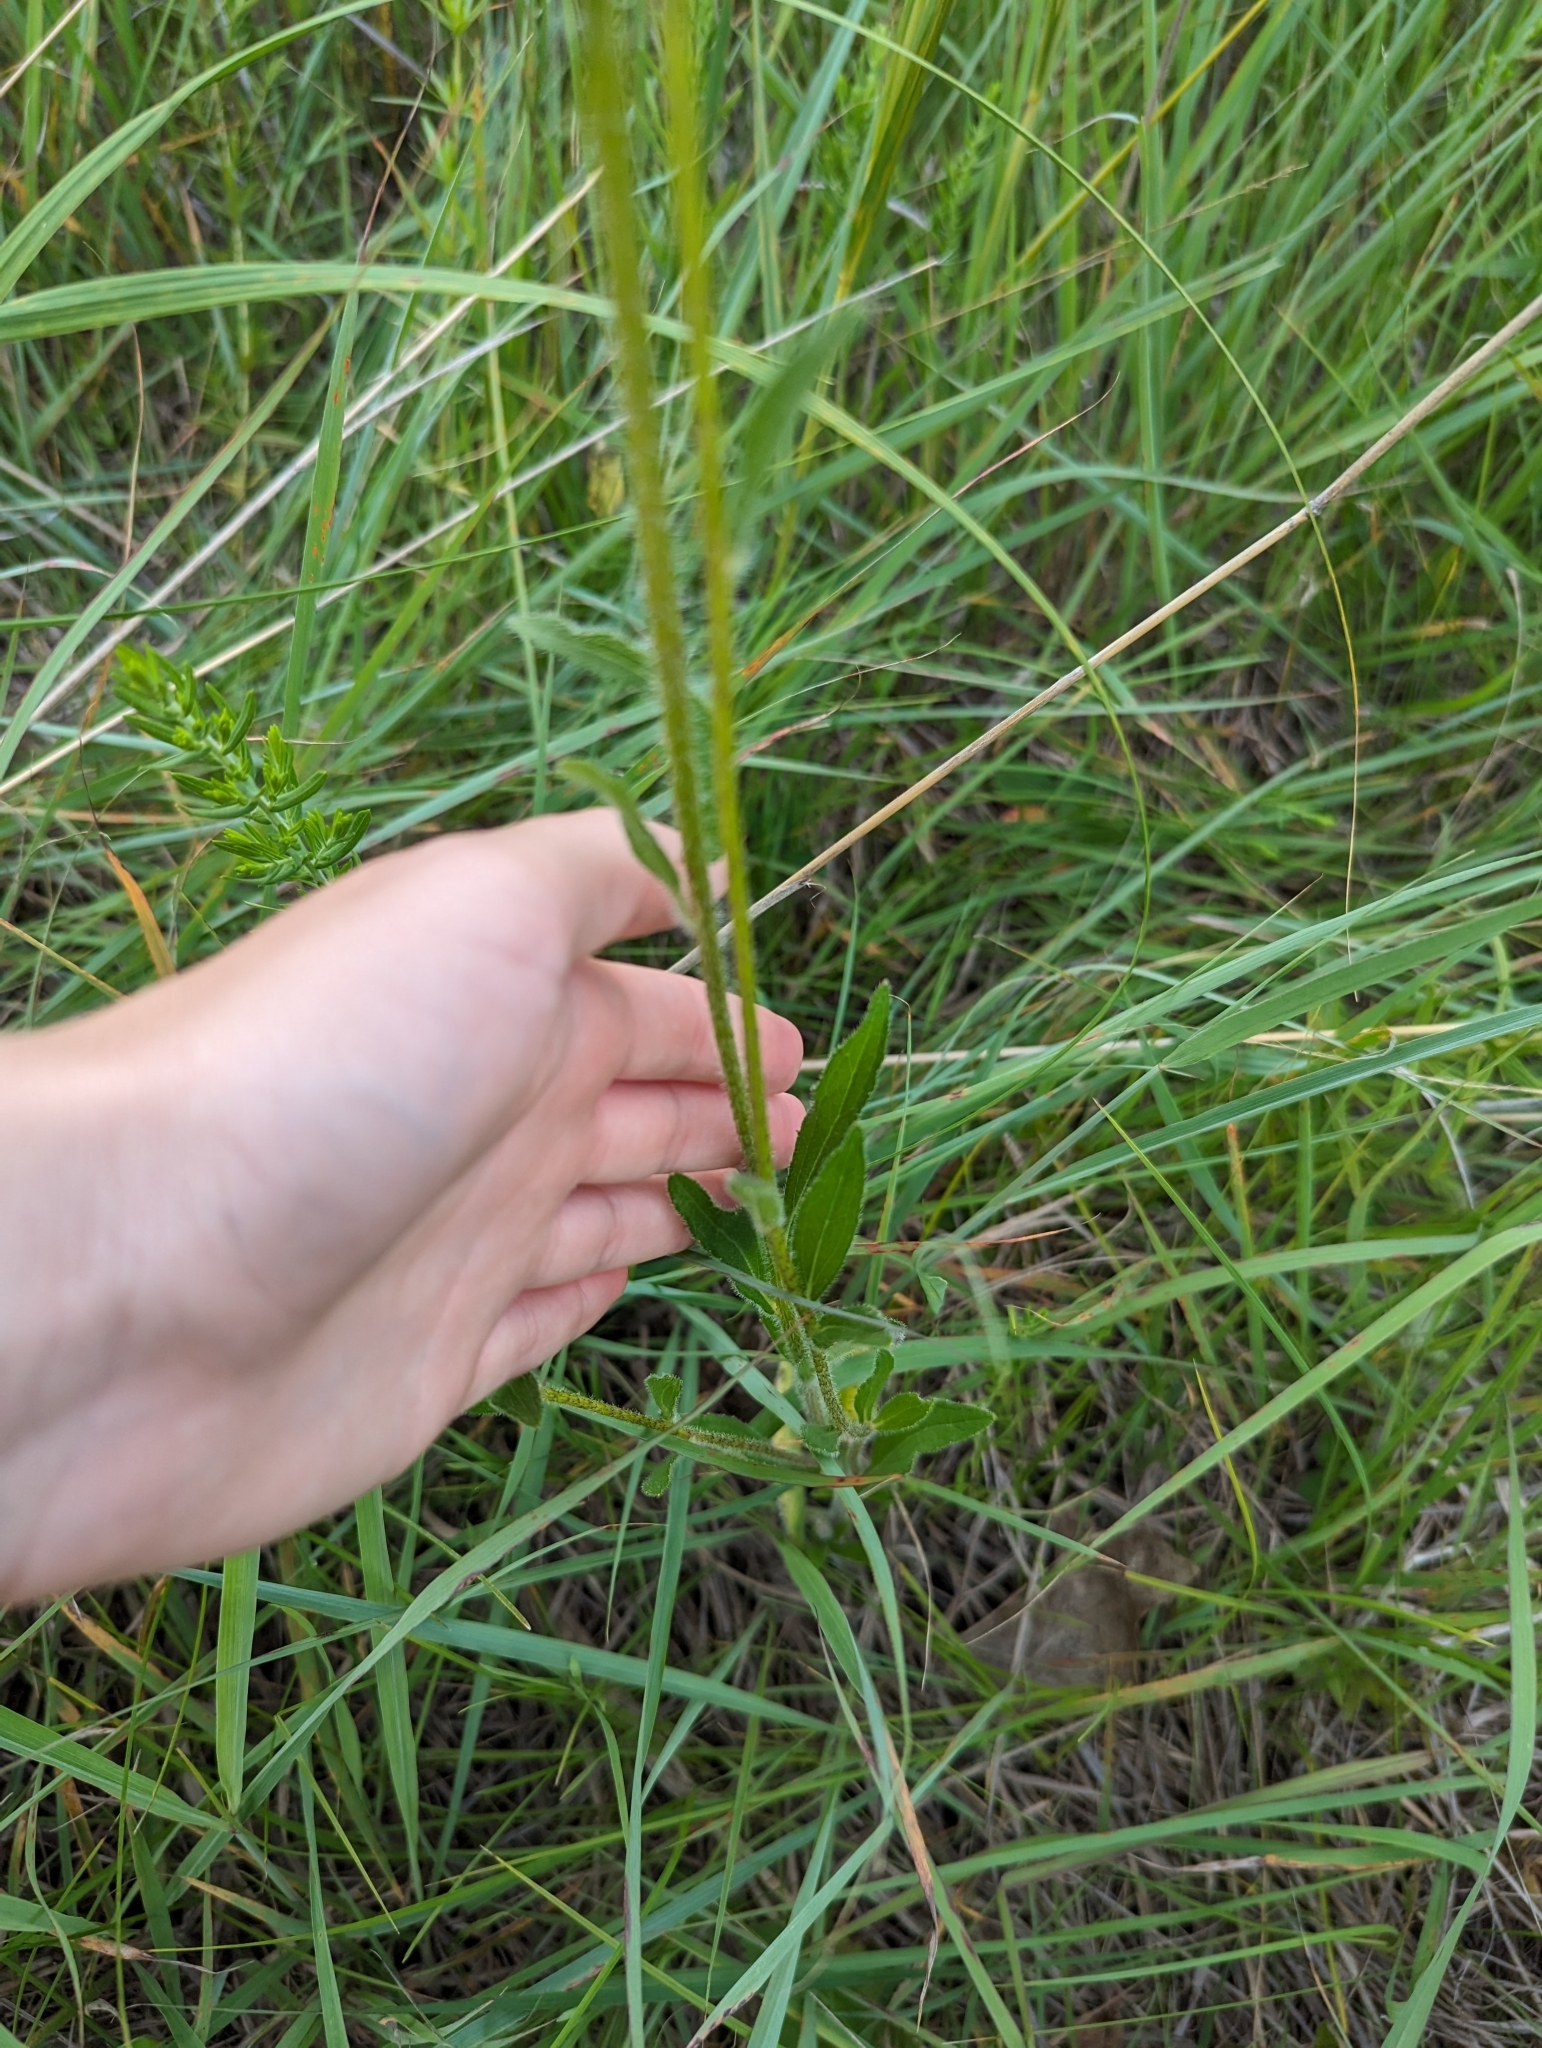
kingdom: Plantae
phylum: Tracheophyta
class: Magnoliopsida
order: Asterales
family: Asteraceae
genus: Rudbeckia
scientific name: Rudbeckia hirta
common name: Black-eyed-susan
